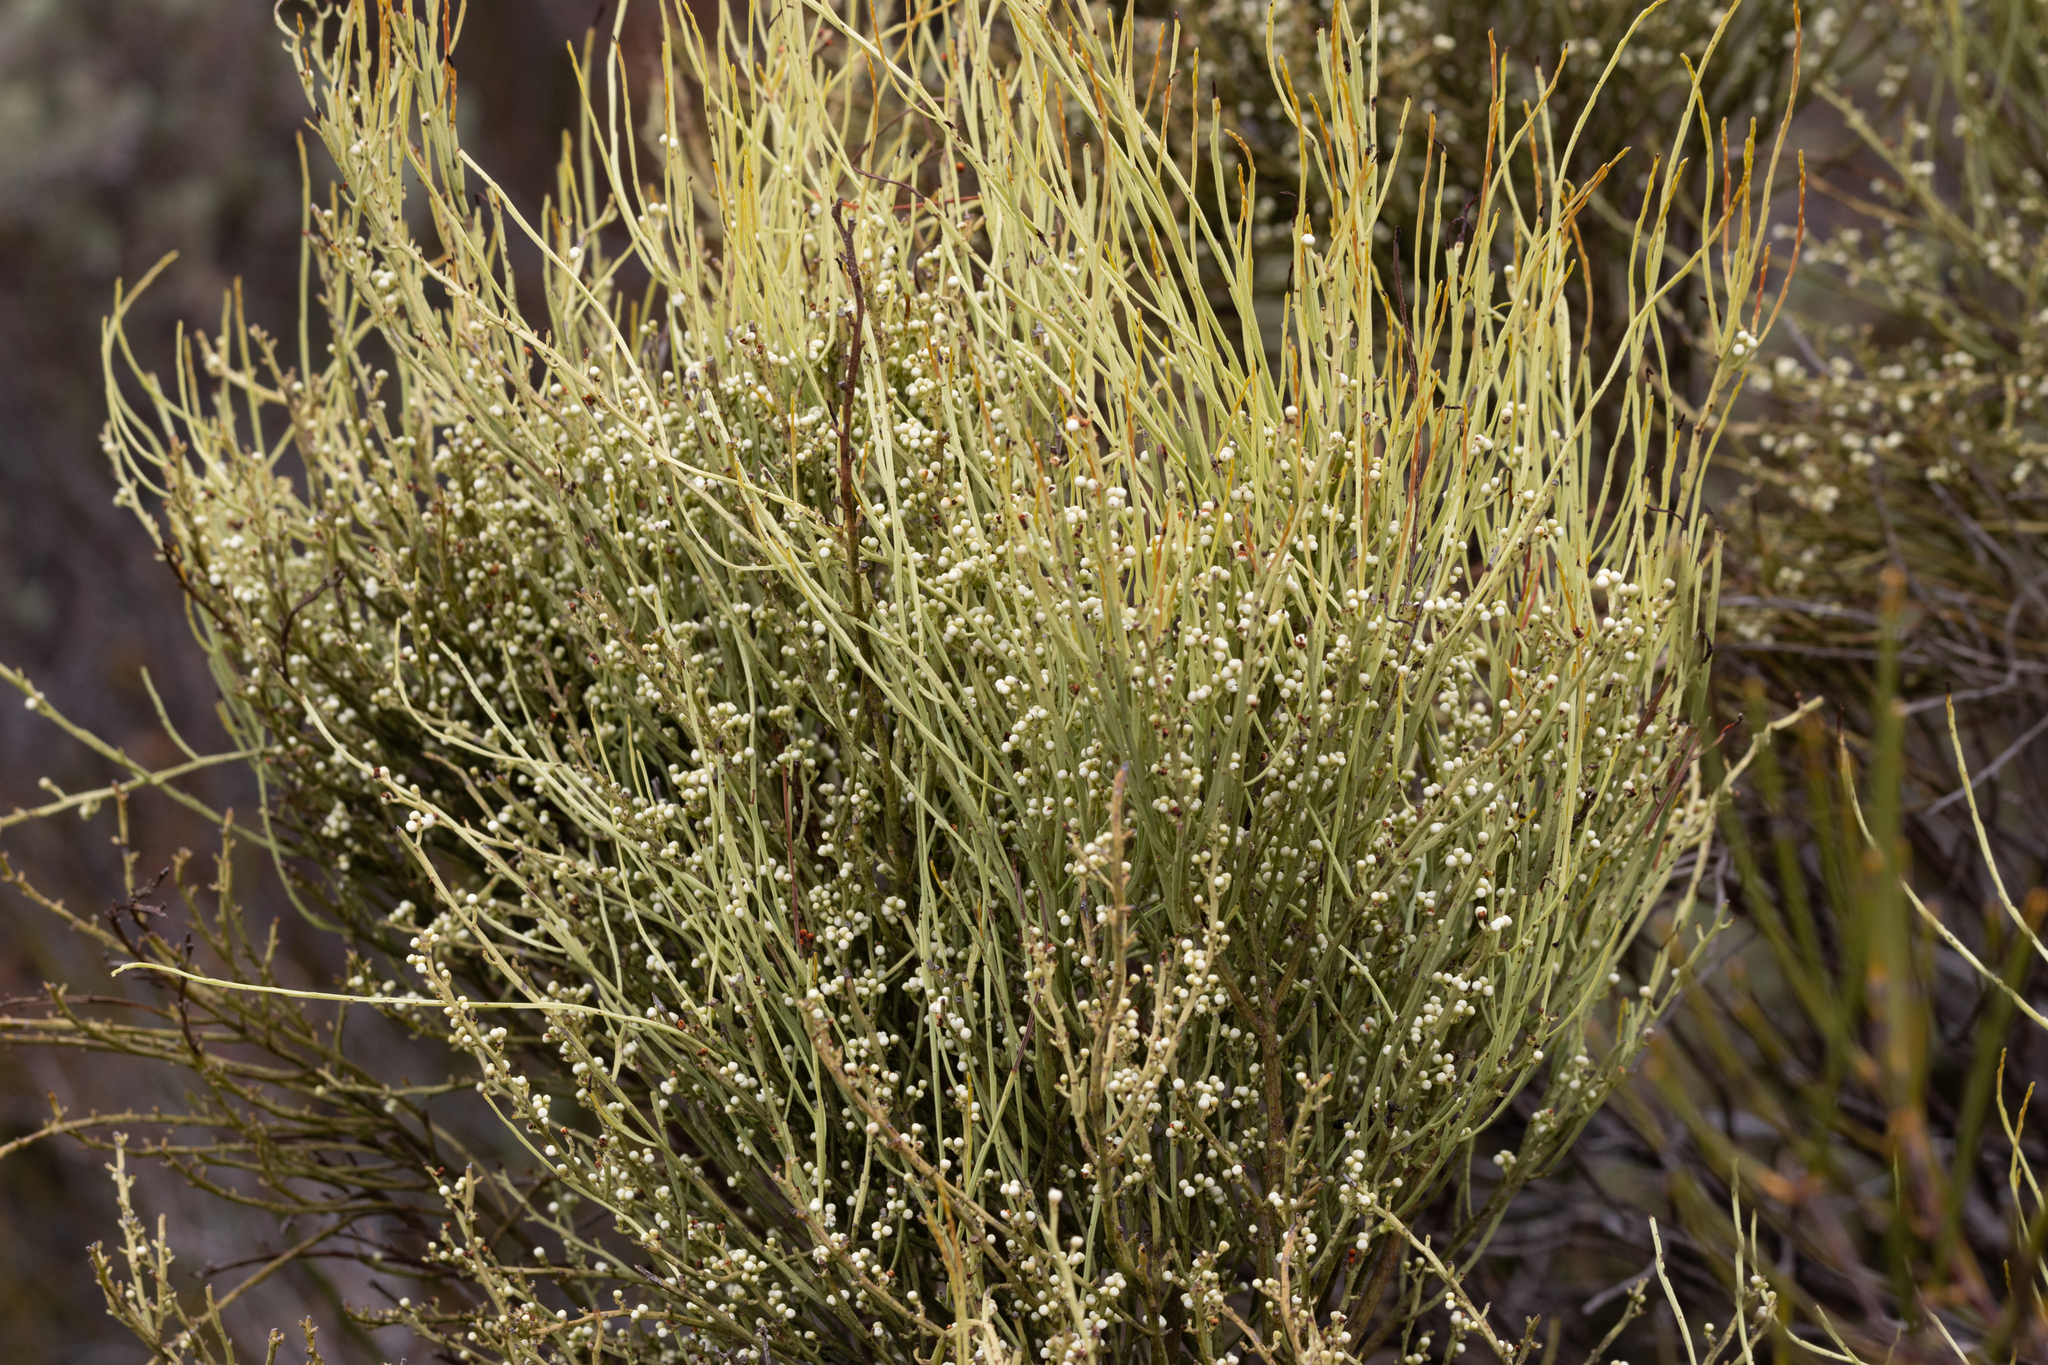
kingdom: Plantae
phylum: Tracheophyta
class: Magnoliopsida
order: Santalales
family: Amphorogynaceae
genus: Choretrum
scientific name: Choretrum glomeratum
